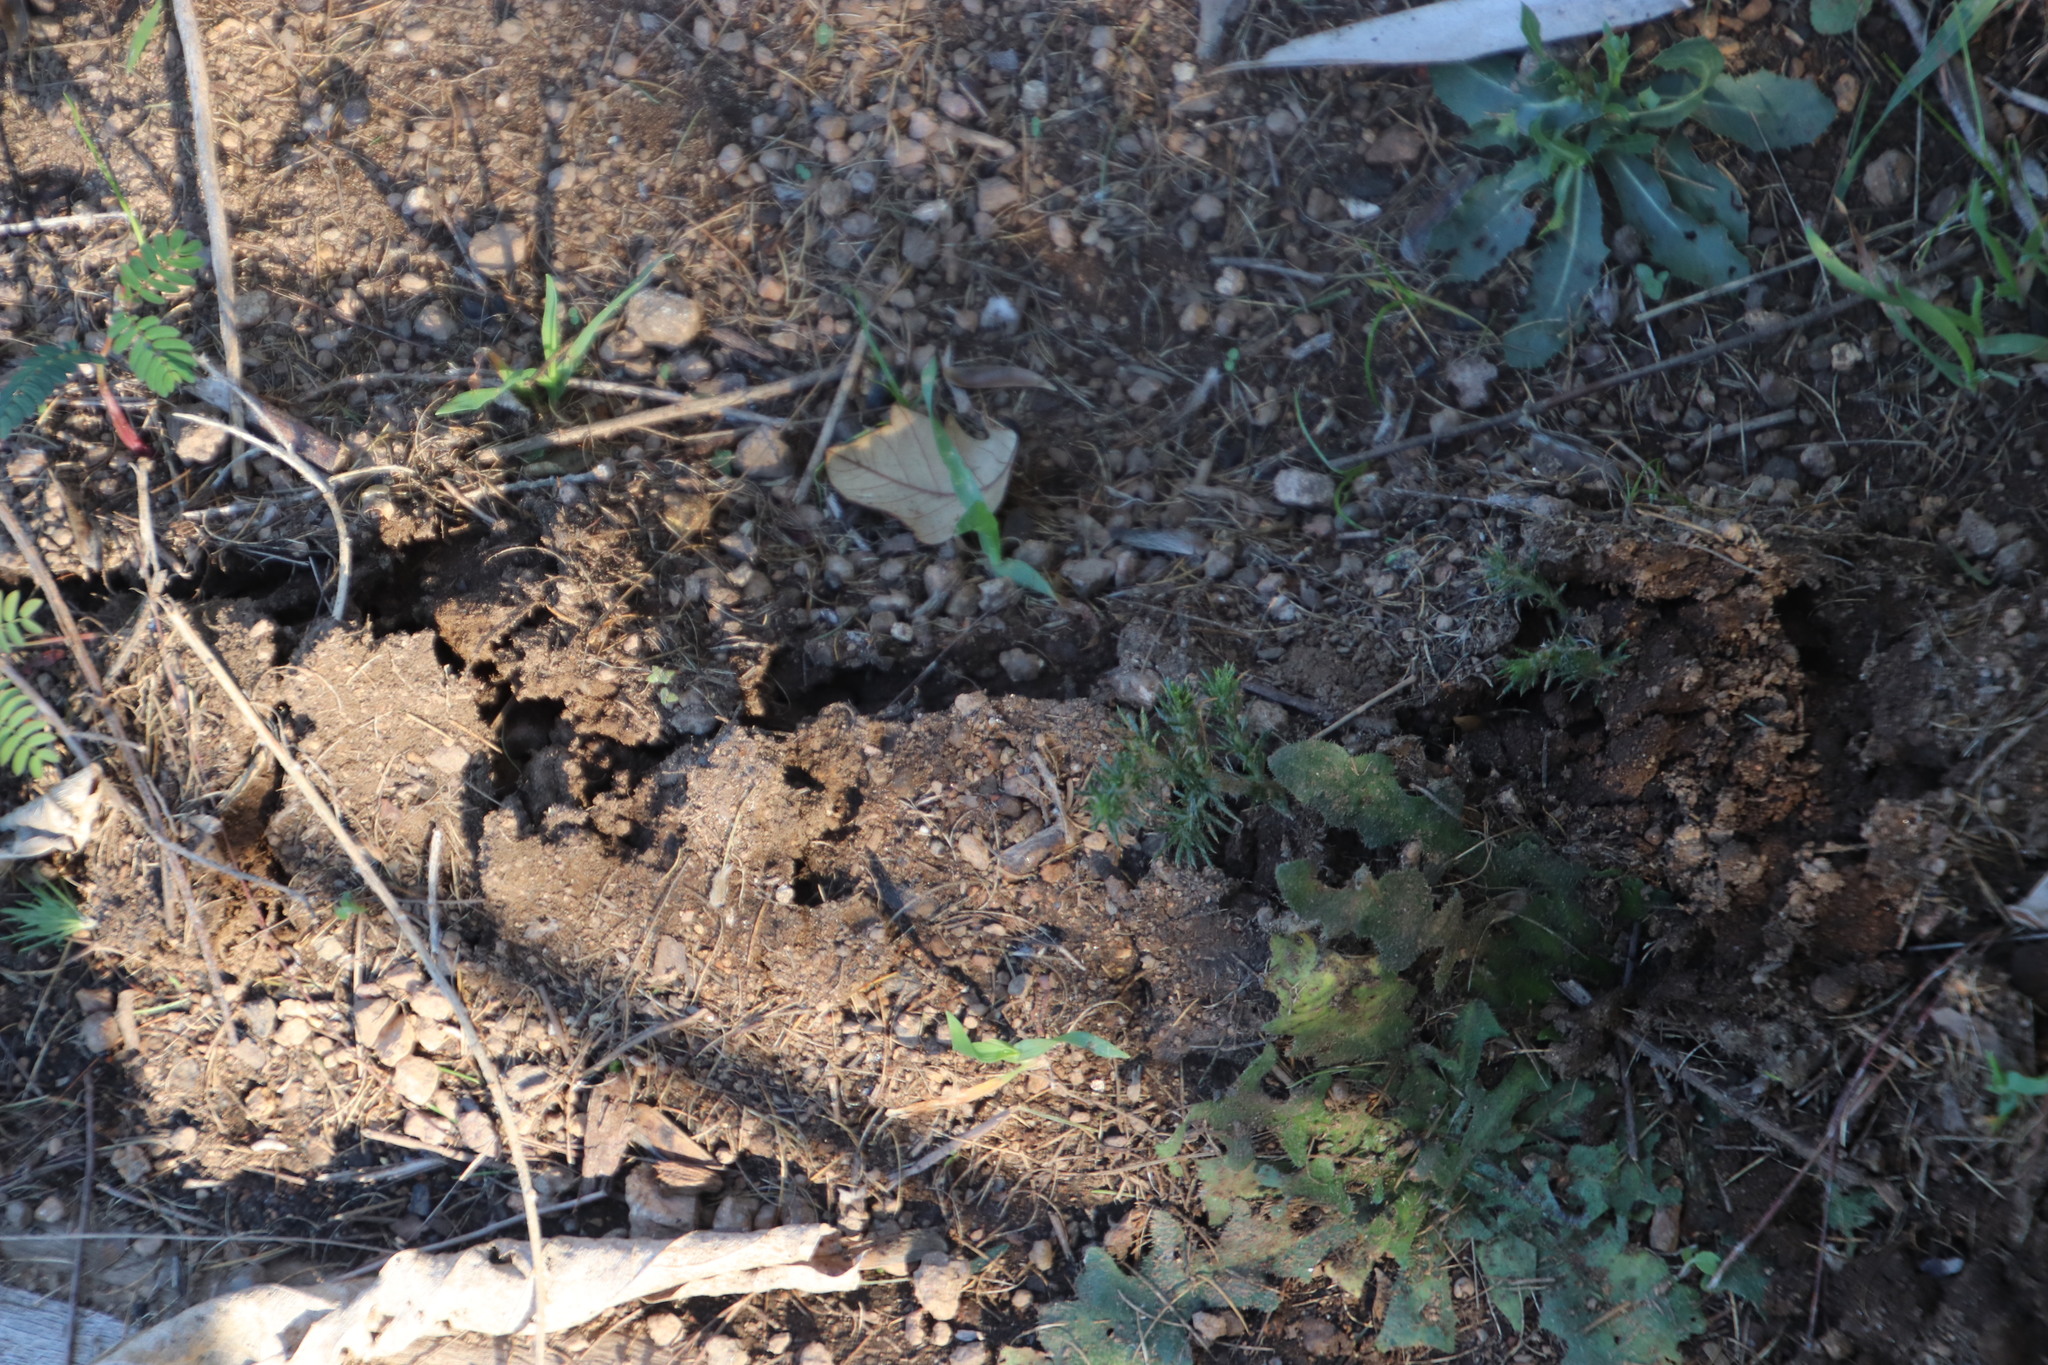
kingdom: Animalia
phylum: Chordata
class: Mammalia
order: Afrosoricida
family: Chrysochloridae
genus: Chrysochloris
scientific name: Chrysochloris asiatica
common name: Cape golden mole
